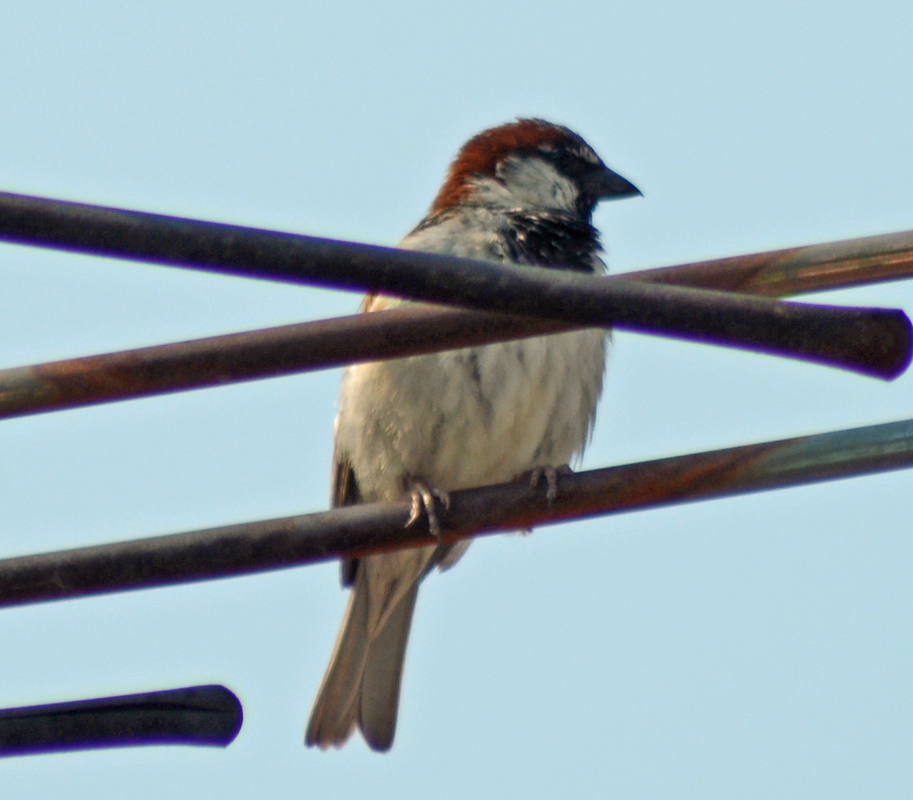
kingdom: Animalia
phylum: Chordata
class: Aves
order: Passeriformes
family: Passeridae
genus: Passer
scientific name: Passer domesticus
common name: House sparrow
